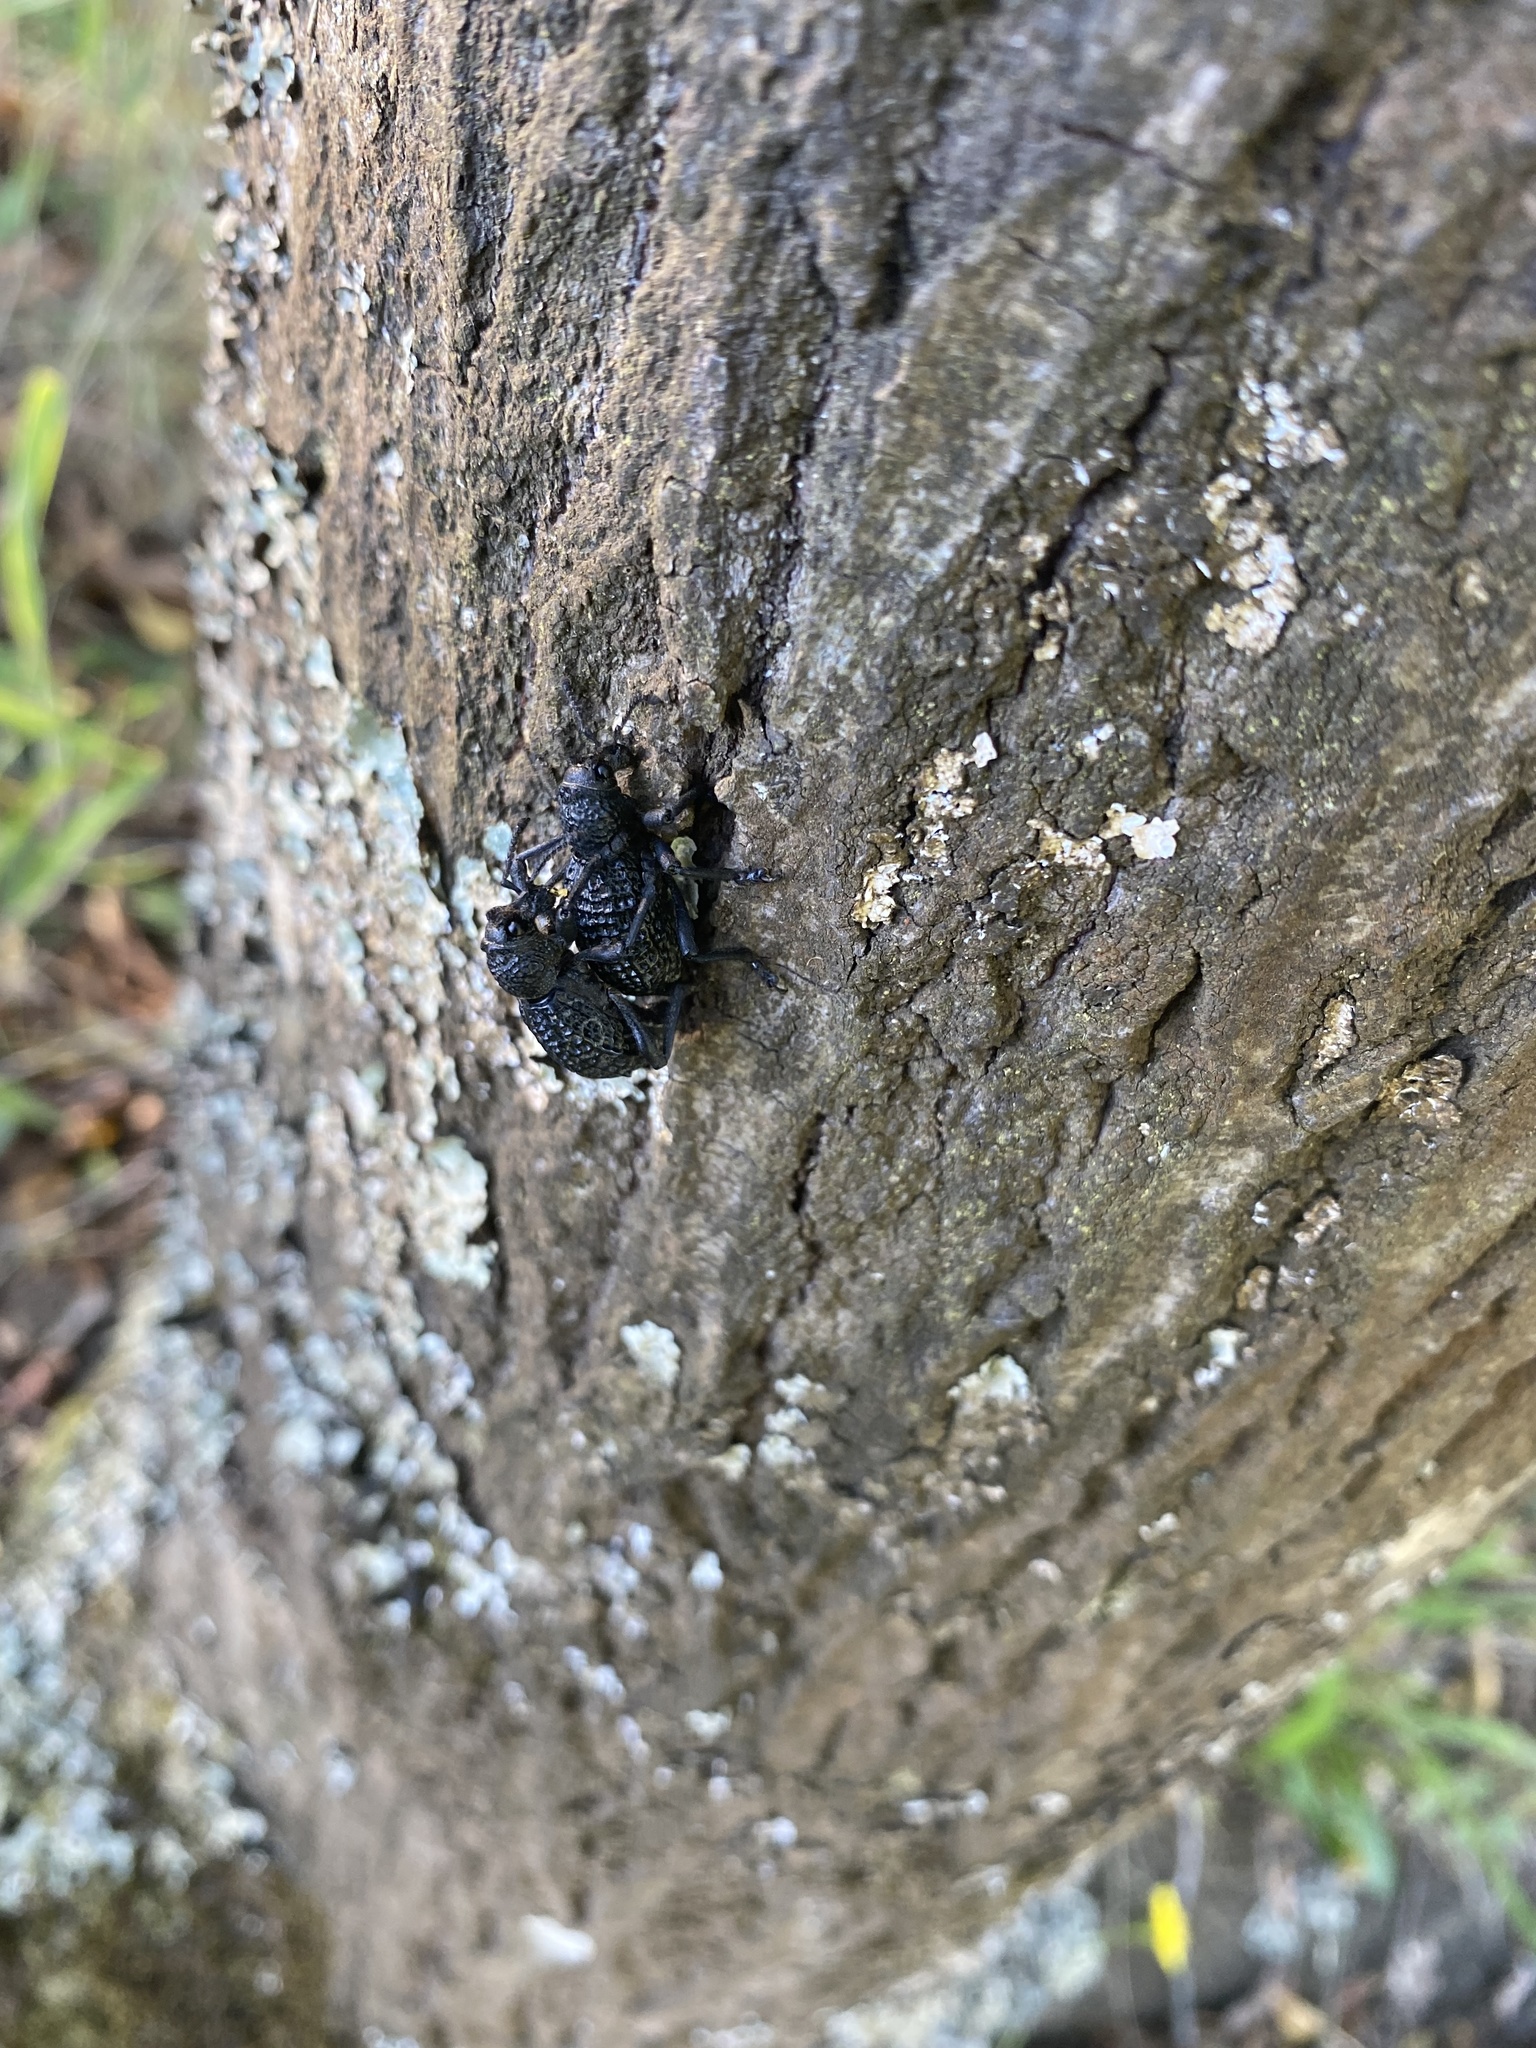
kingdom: Animalia
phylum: Arthropoda
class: Insecta
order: Coleoptera
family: Curculionidae
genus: Aegorhinus
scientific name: Aegorhinus superciliosus
